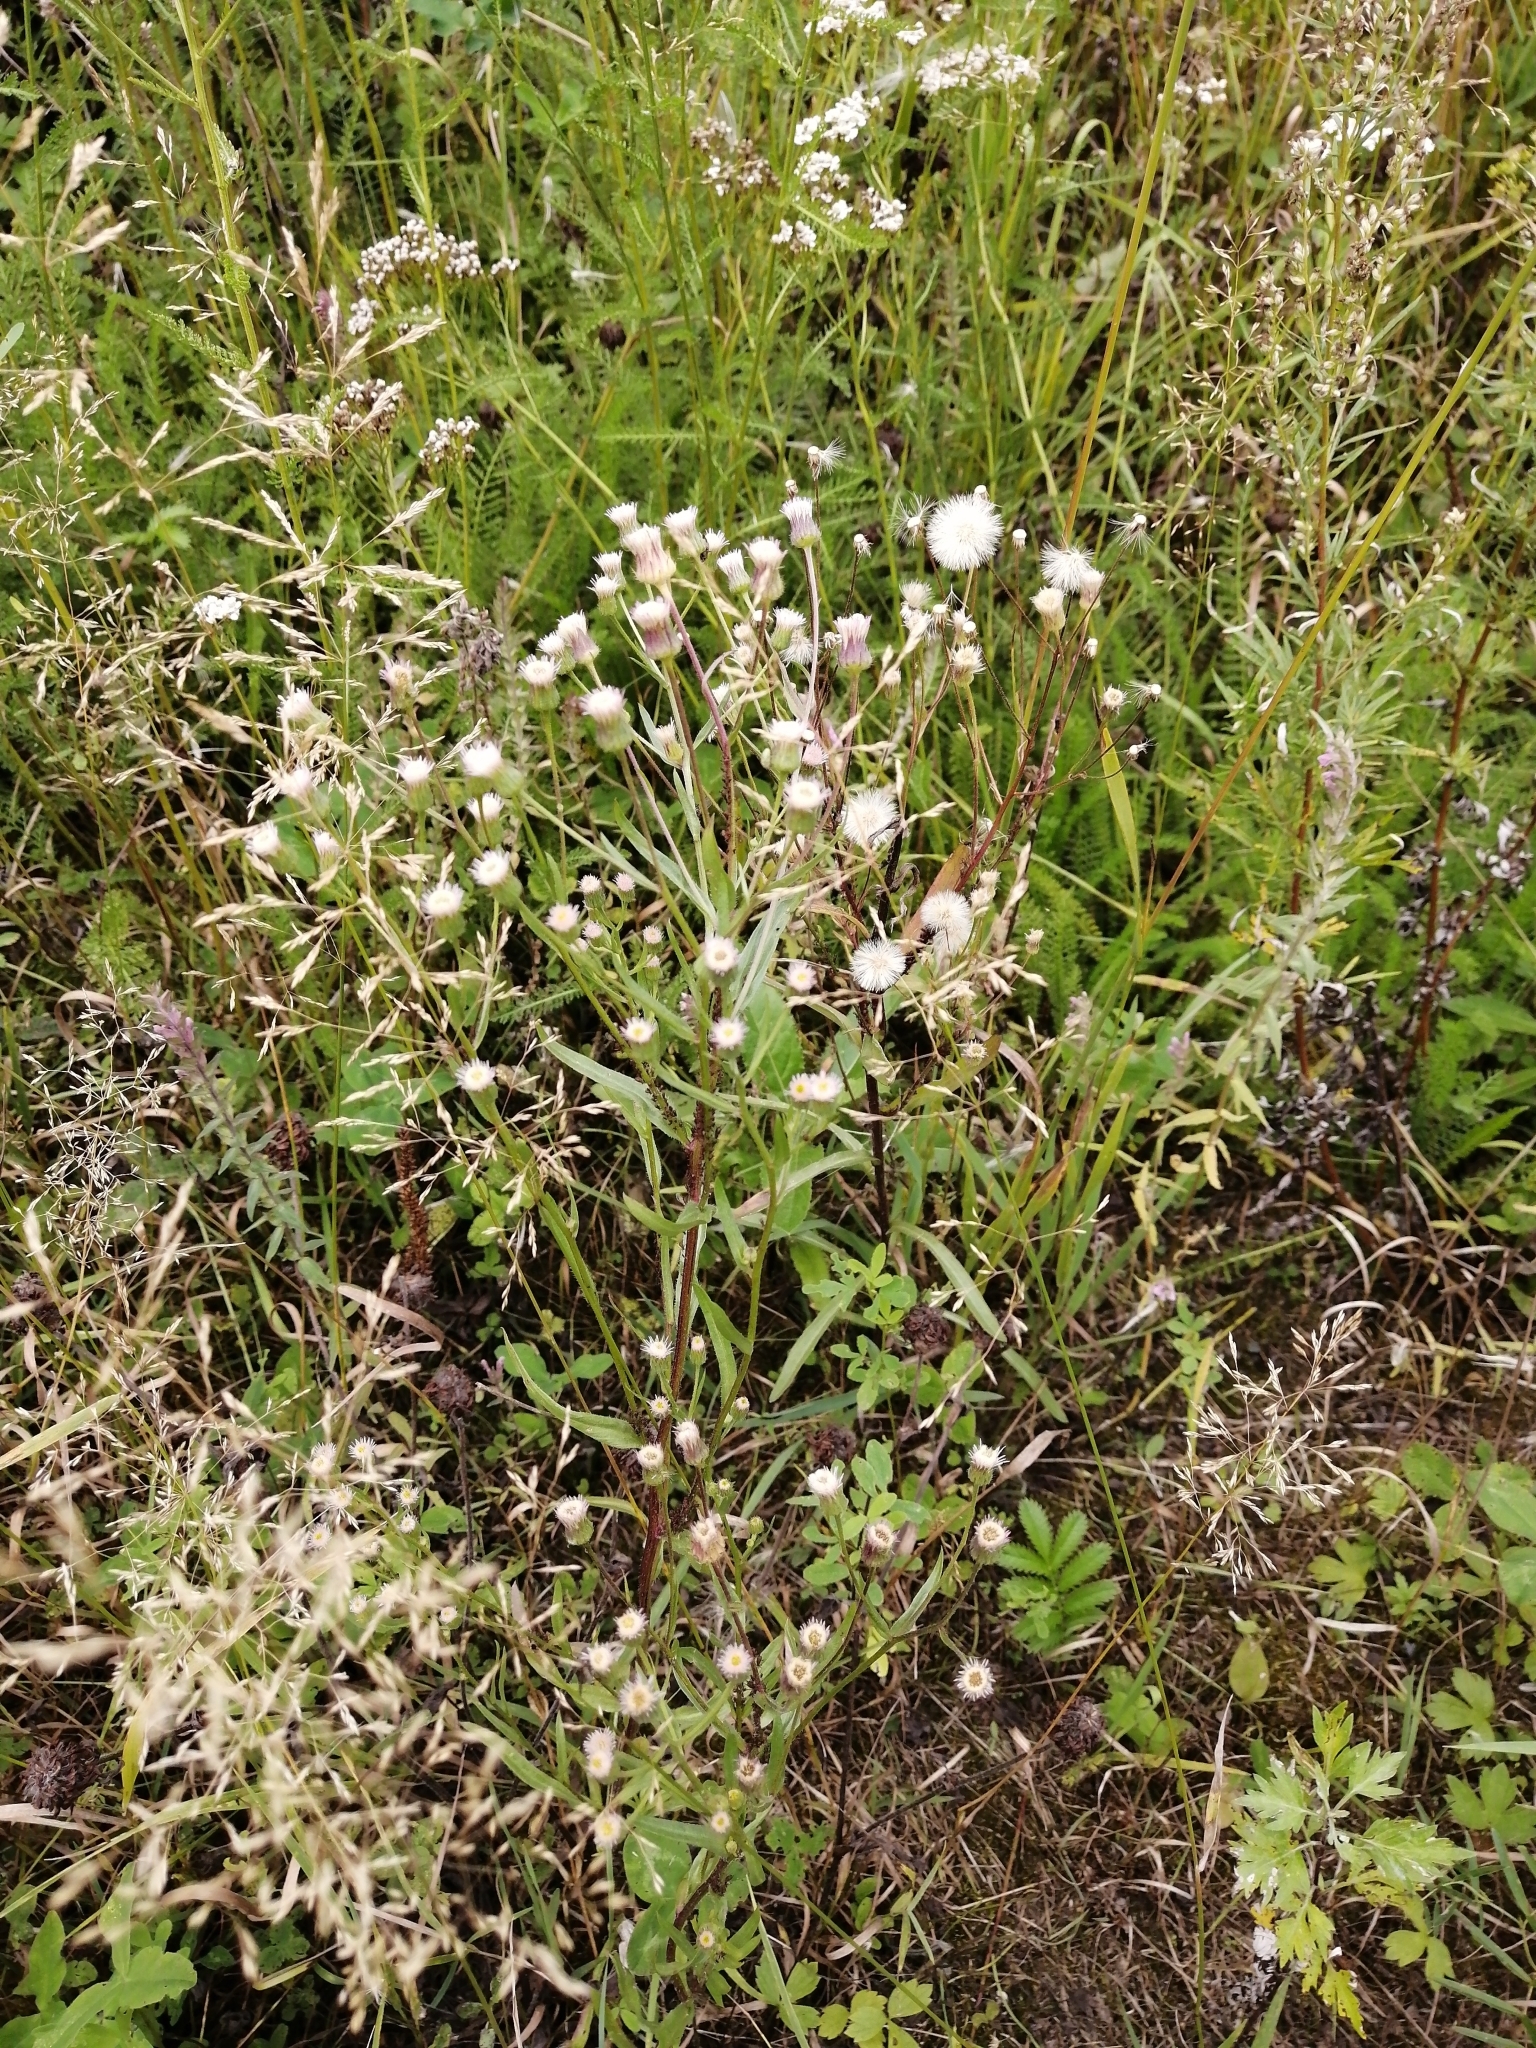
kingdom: Plantae
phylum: Tracheophyta
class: Magnoliopsida
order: Asterales
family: Asteraceae
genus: Erigeron
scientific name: Erigeron acris
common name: Blue fleabane
